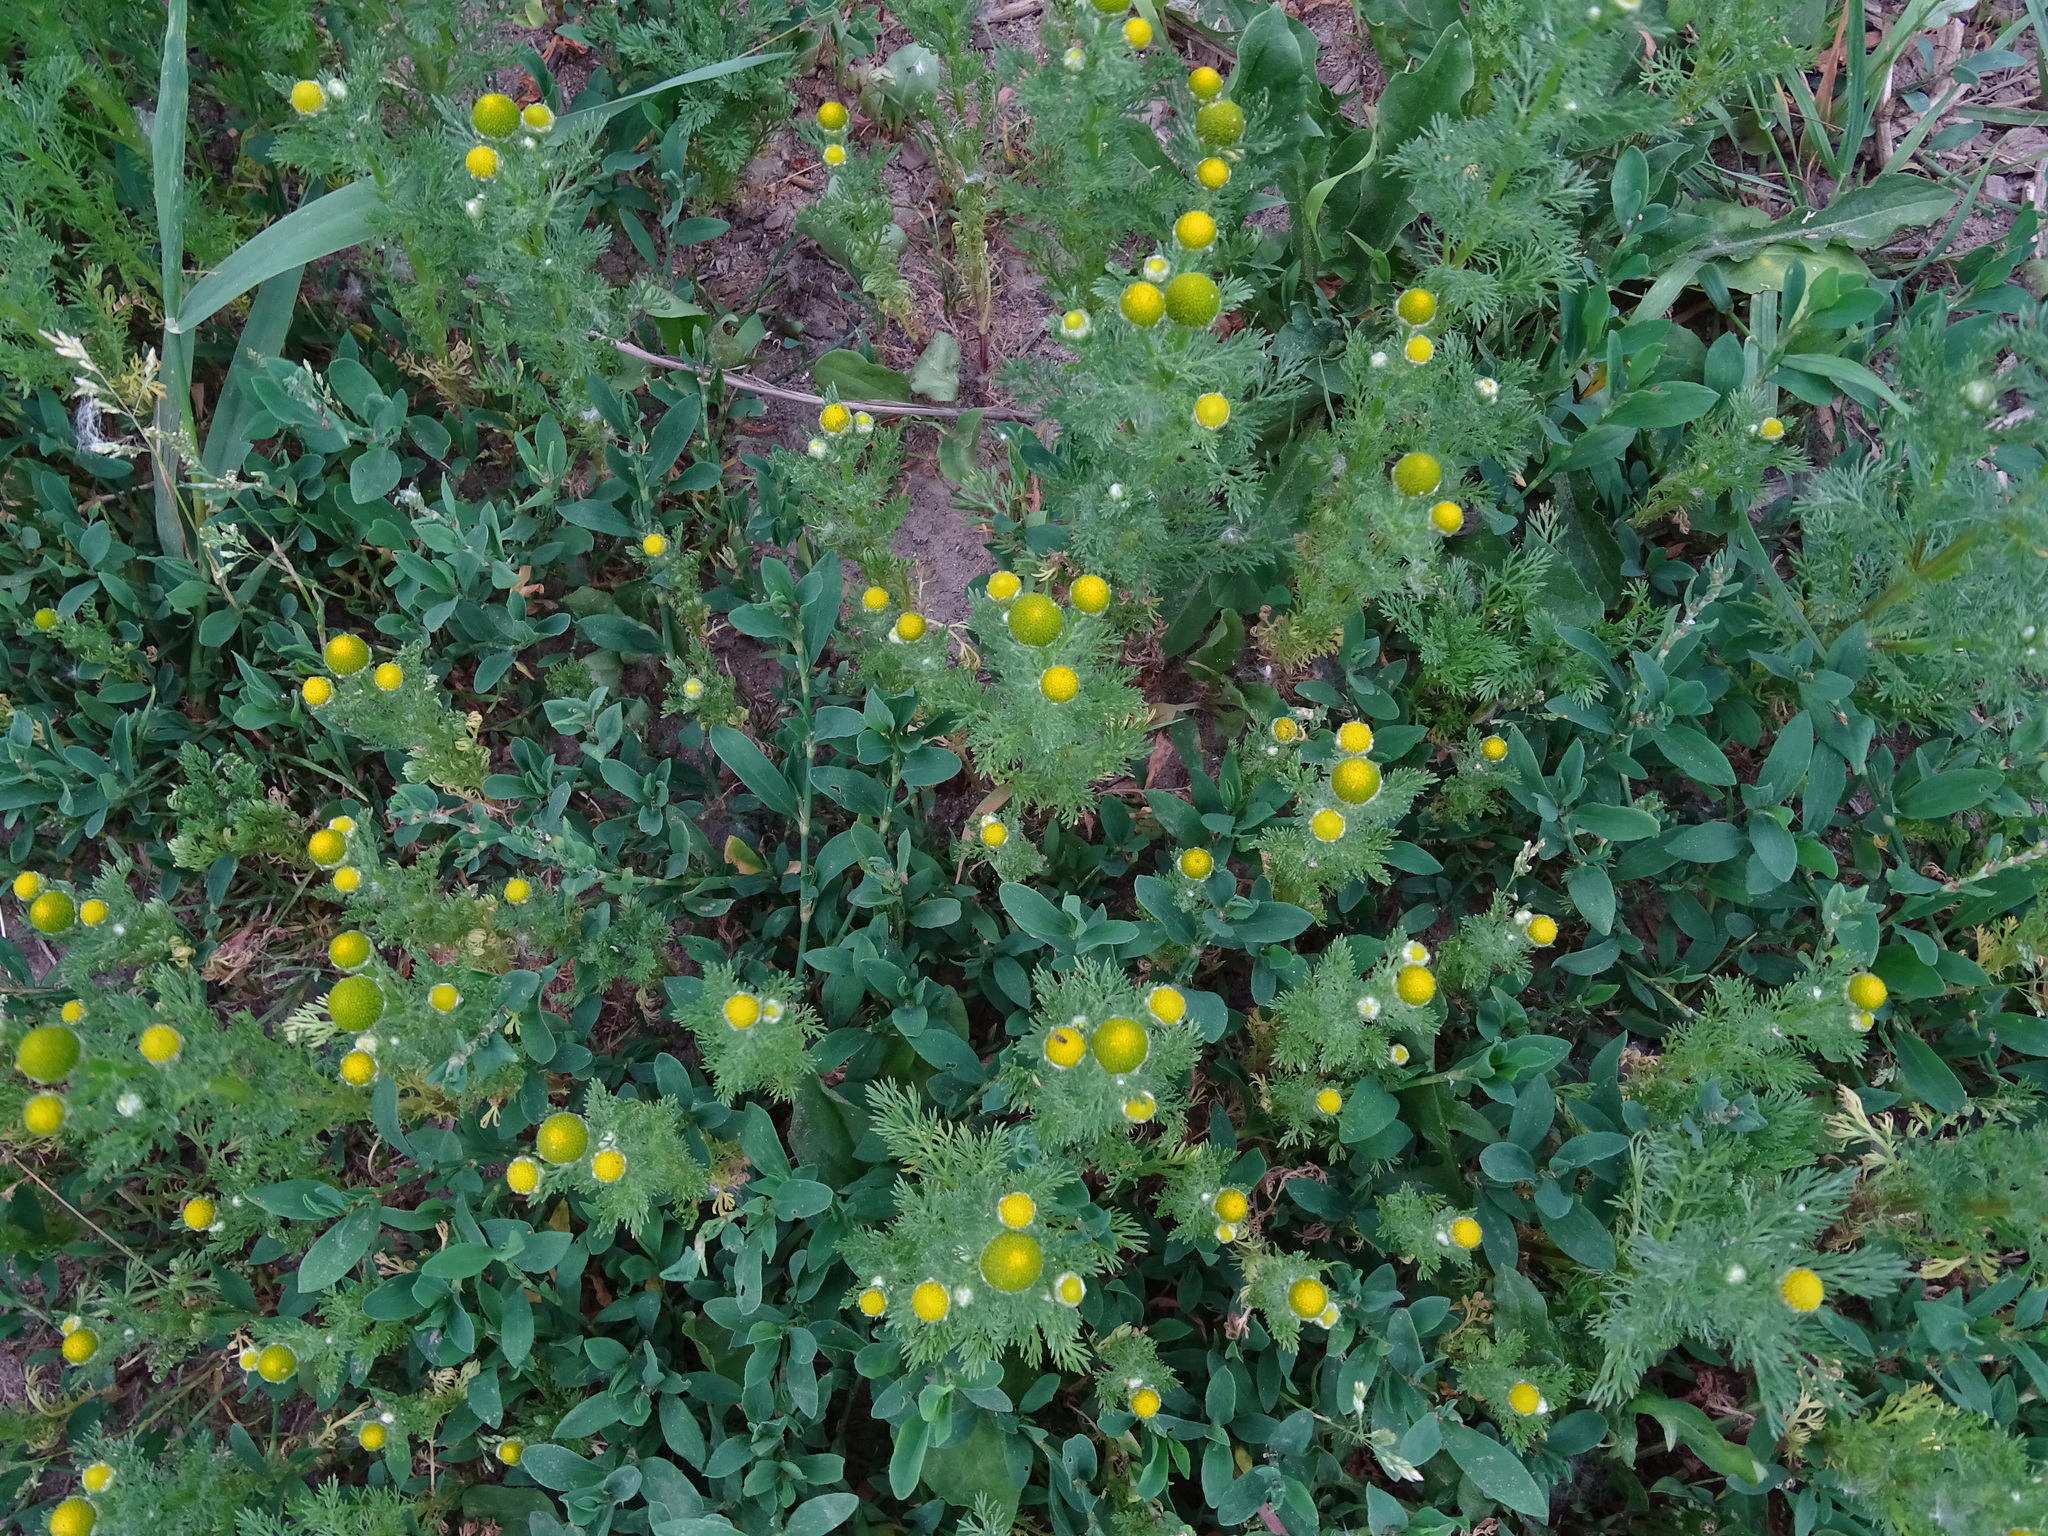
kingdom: Plantae
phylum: Tracheophyta
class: Magnoliopsida
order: Asterales
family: Asteraceae
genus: Matricaria
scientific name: Matricaria discoidea
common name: Disc mayweed
